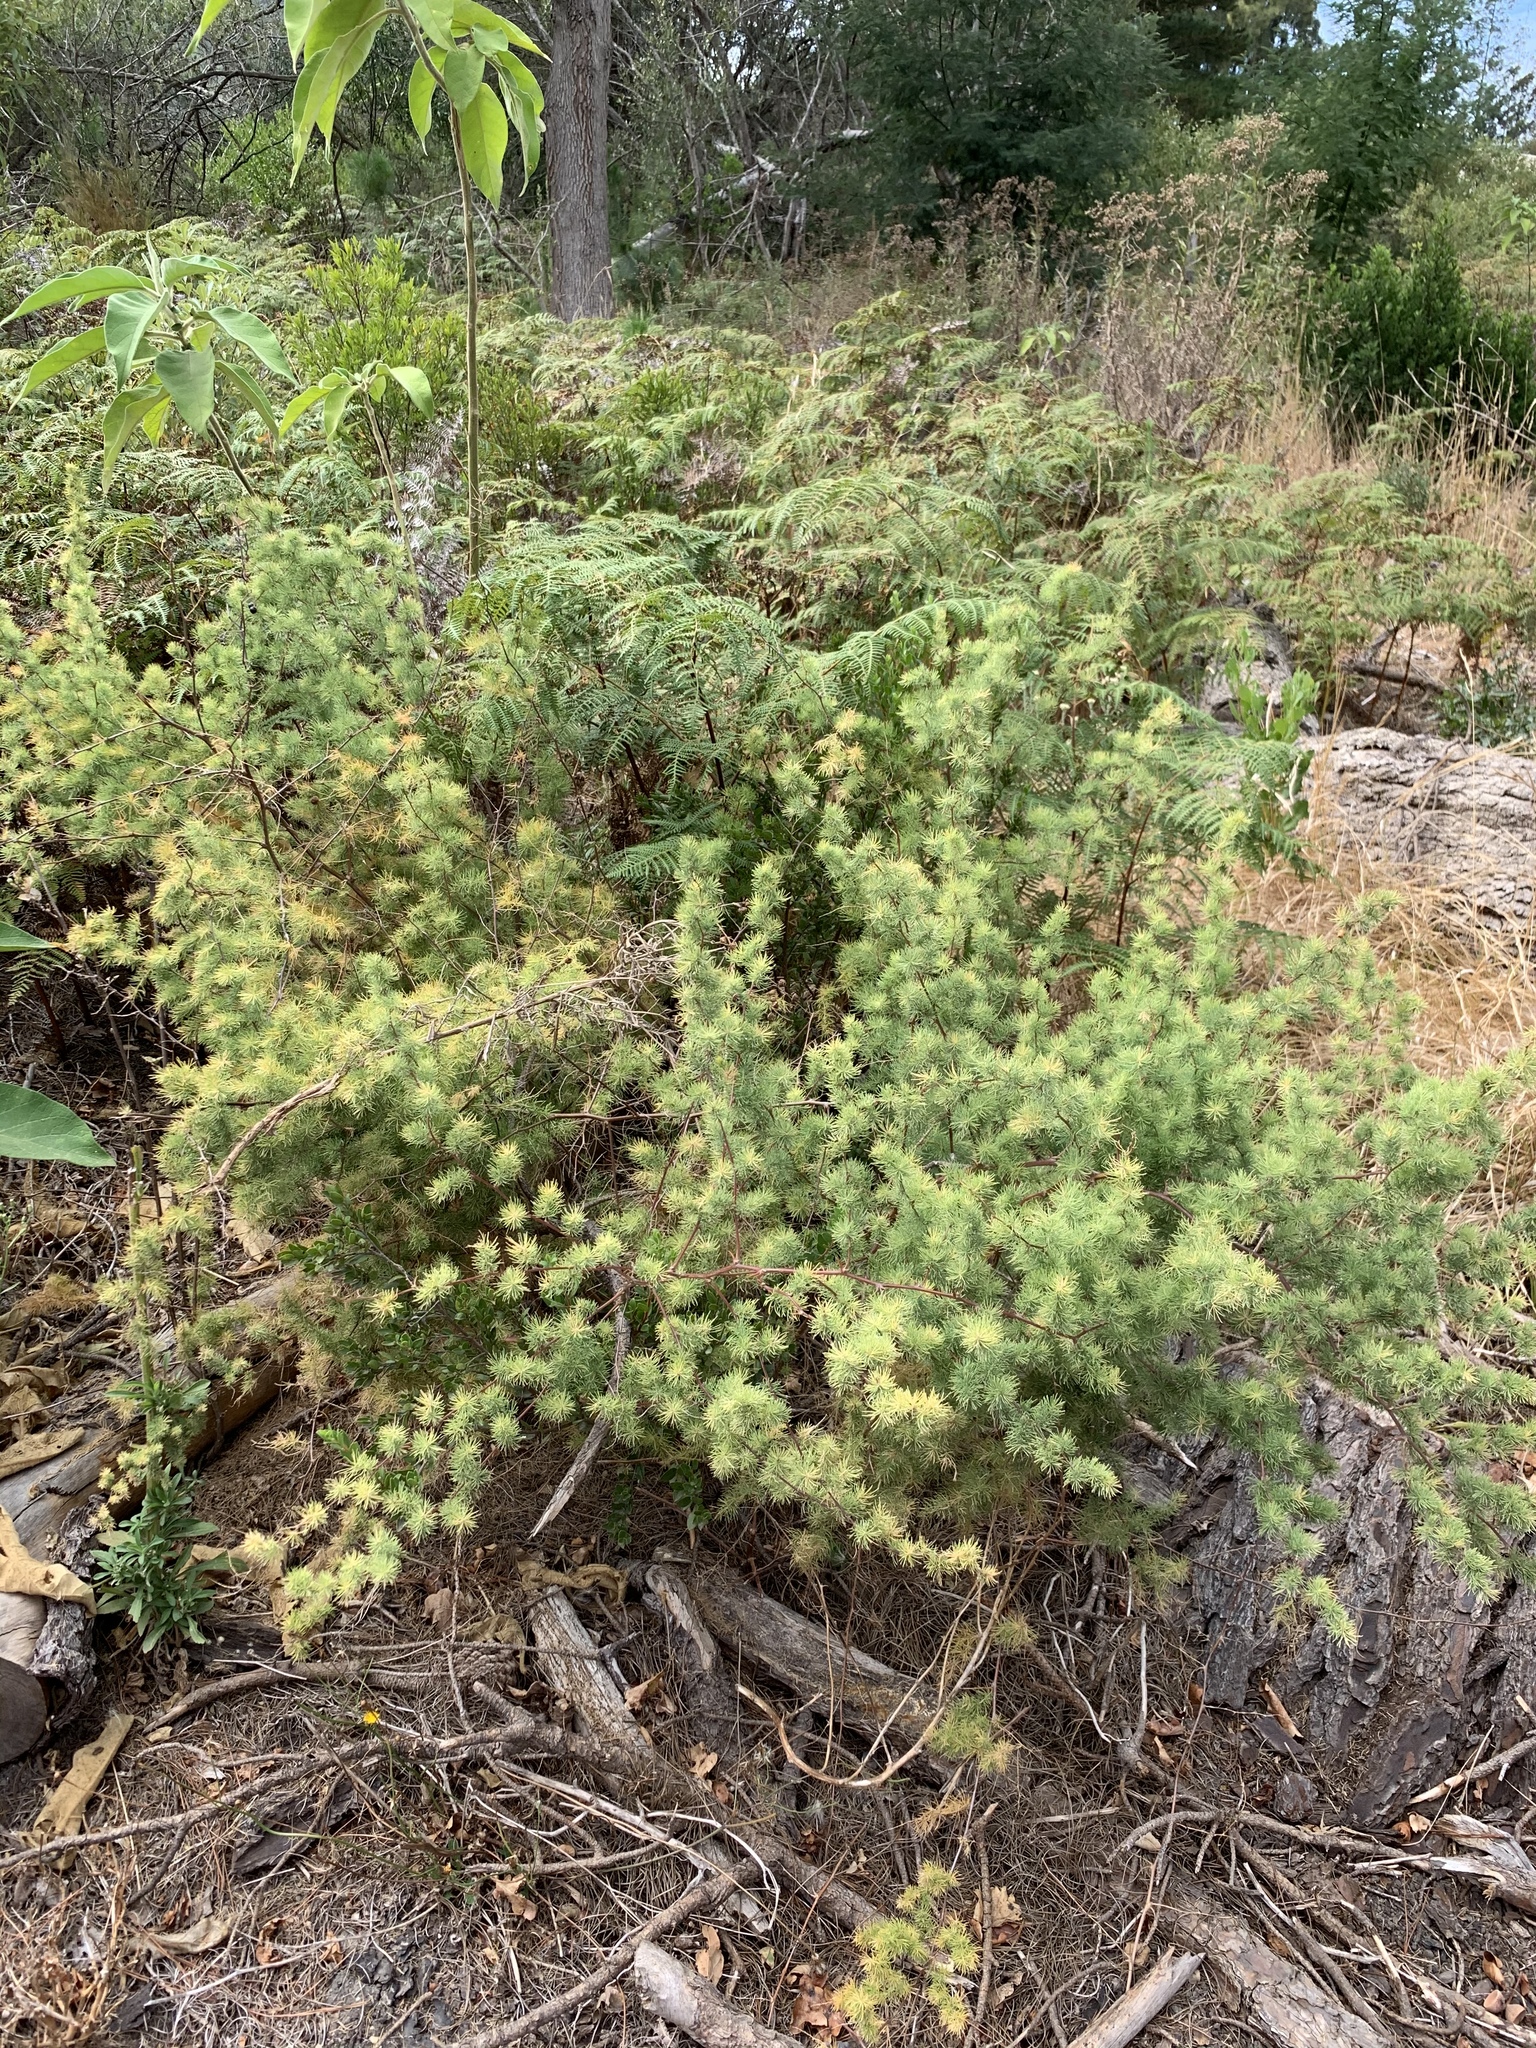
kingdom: Plantae
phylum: Tracheophyta
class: Liliopsida
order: Asparagales
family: Asparagaceae
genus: Asparagus
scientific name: Asparagus rubicundus
